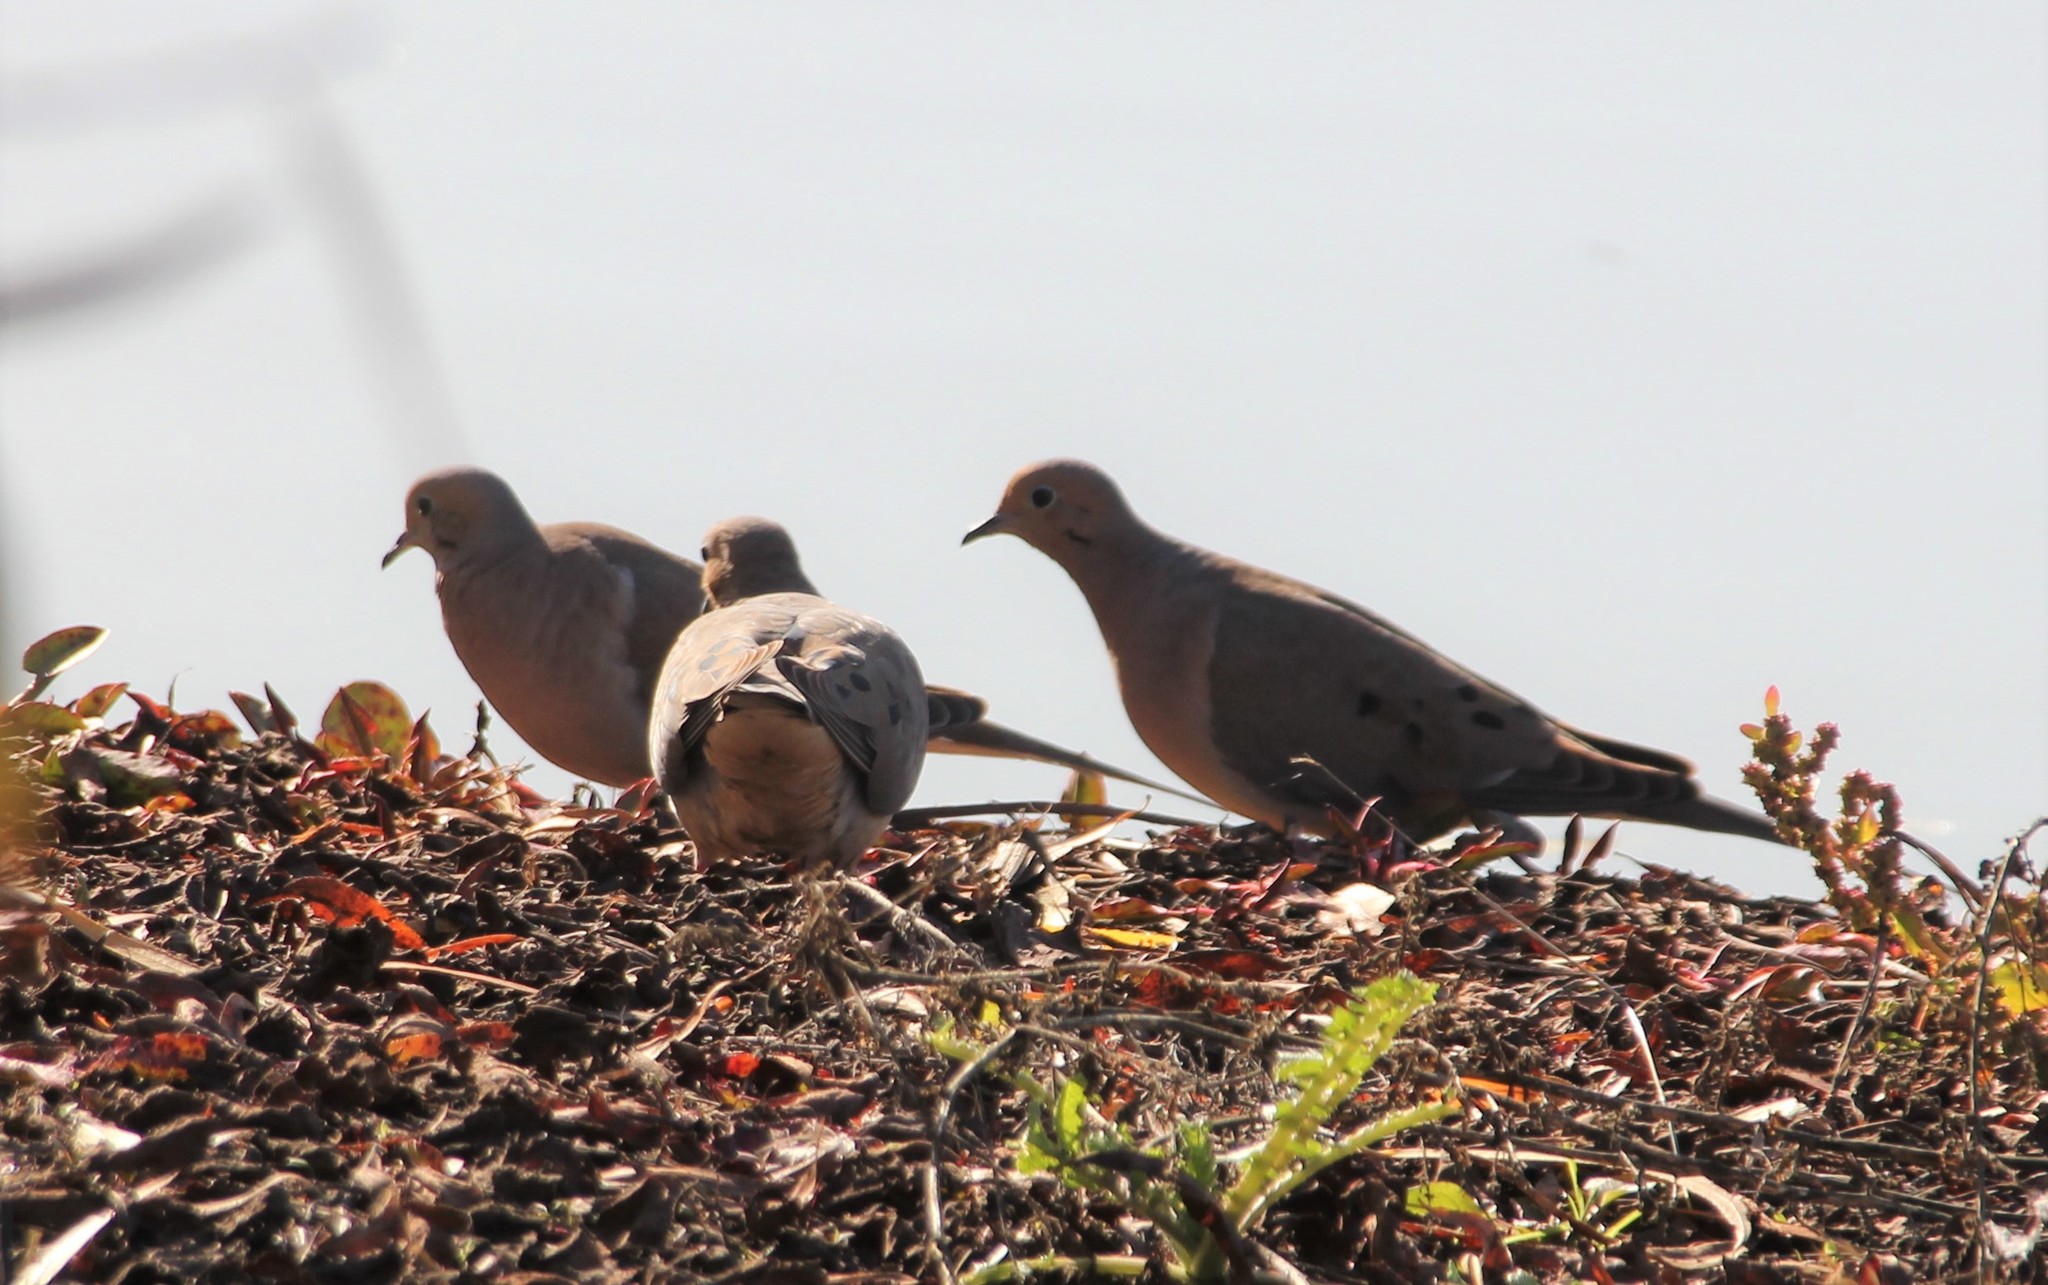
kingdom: Animalia
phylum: Chordata
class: Aves
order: Columbiformes
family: Columbidae
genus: Zenaida
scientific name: Zenaida macroura
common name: Mourning dove
